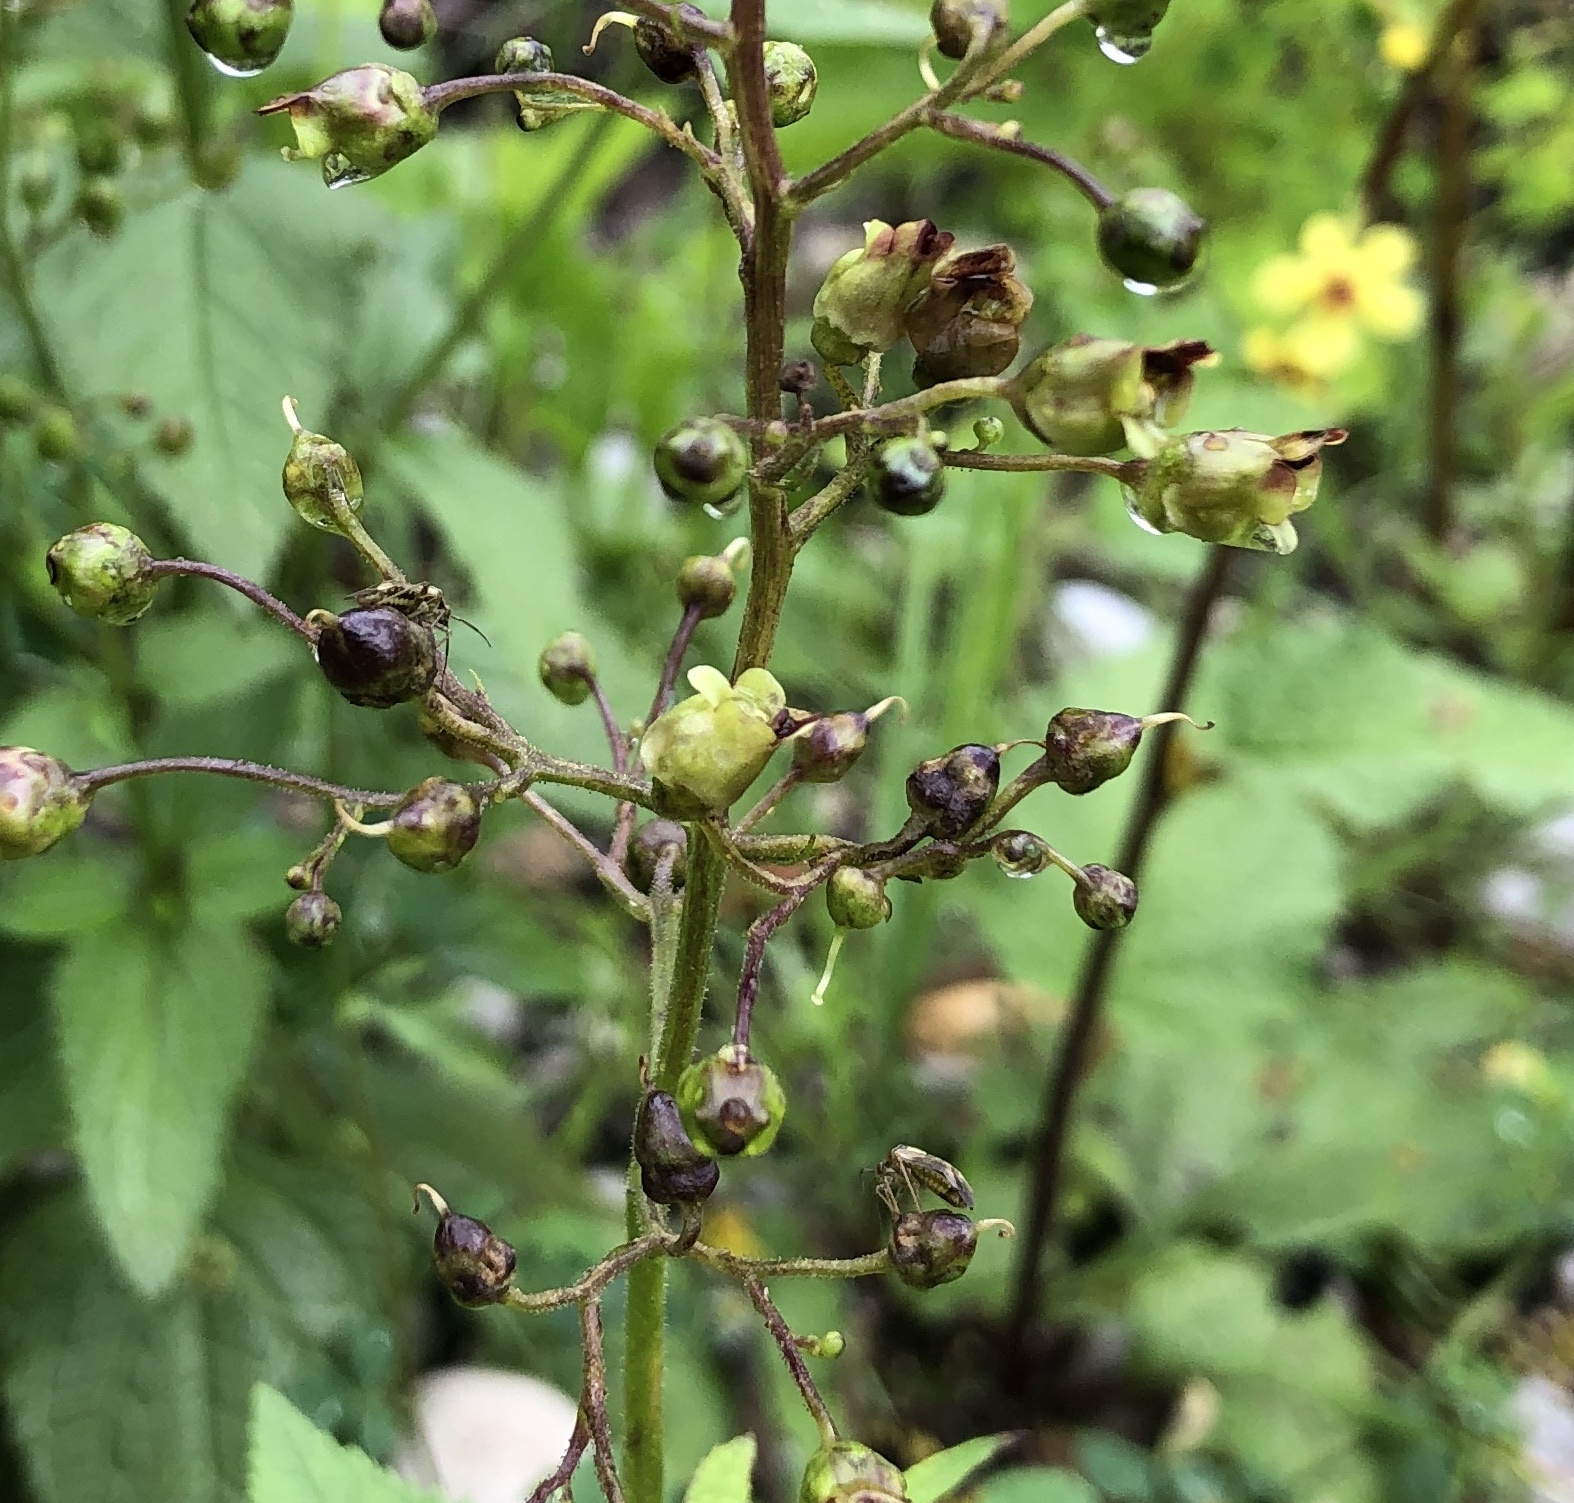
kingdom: Plantae
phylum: Tracheophyta
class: Magnoliopsida
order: Lamiales
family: Scrophulariaceae
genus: Scrophularia
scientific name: Scrophularia nodosa
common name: Common figwort
